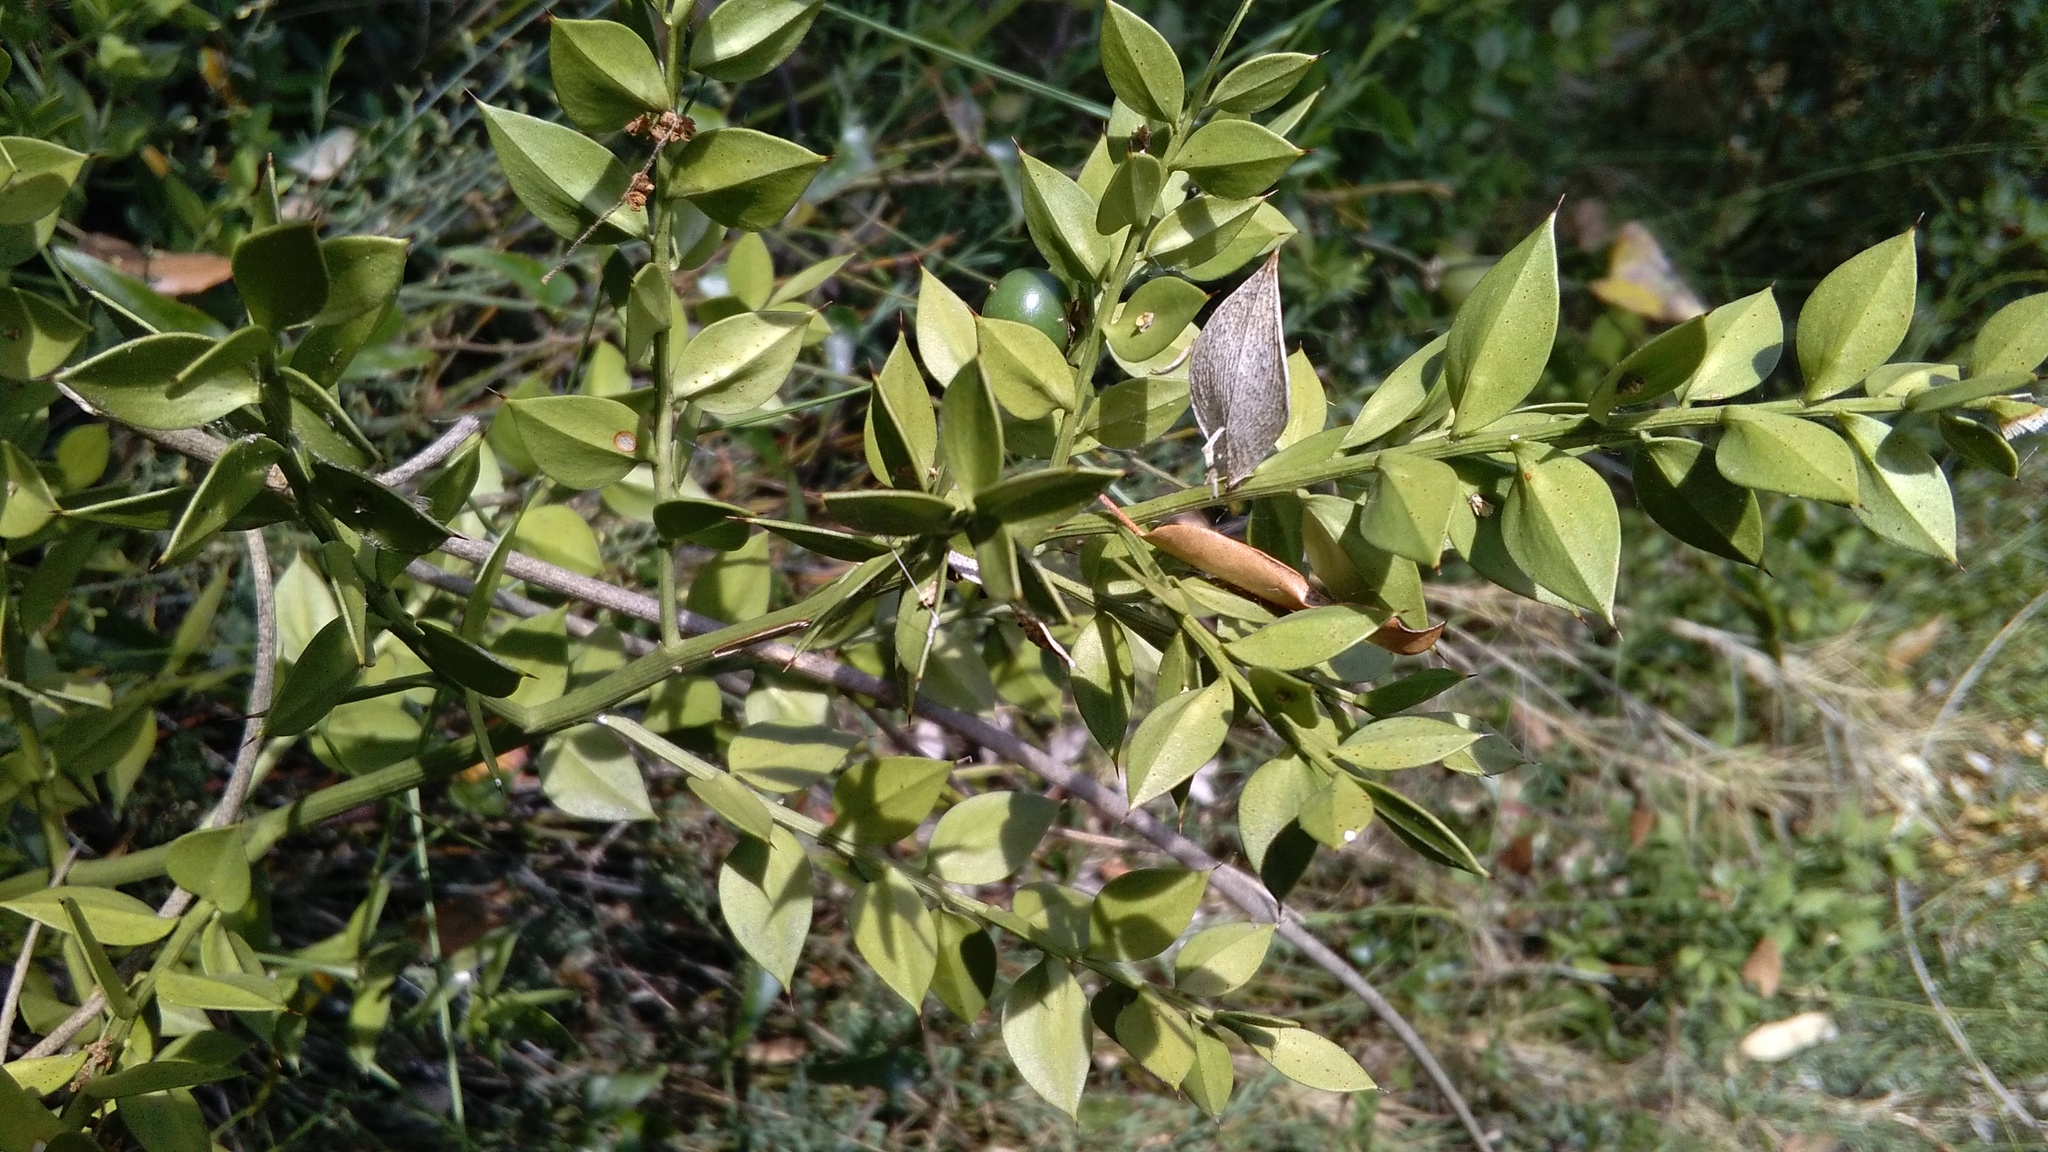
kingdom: Plantae
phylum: Tracheophyta
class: Liliopsida
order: Asparagales
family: Asparagaceae
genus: Ruscus
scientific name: Ruscus aculeatus
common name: Butcher's-broom
